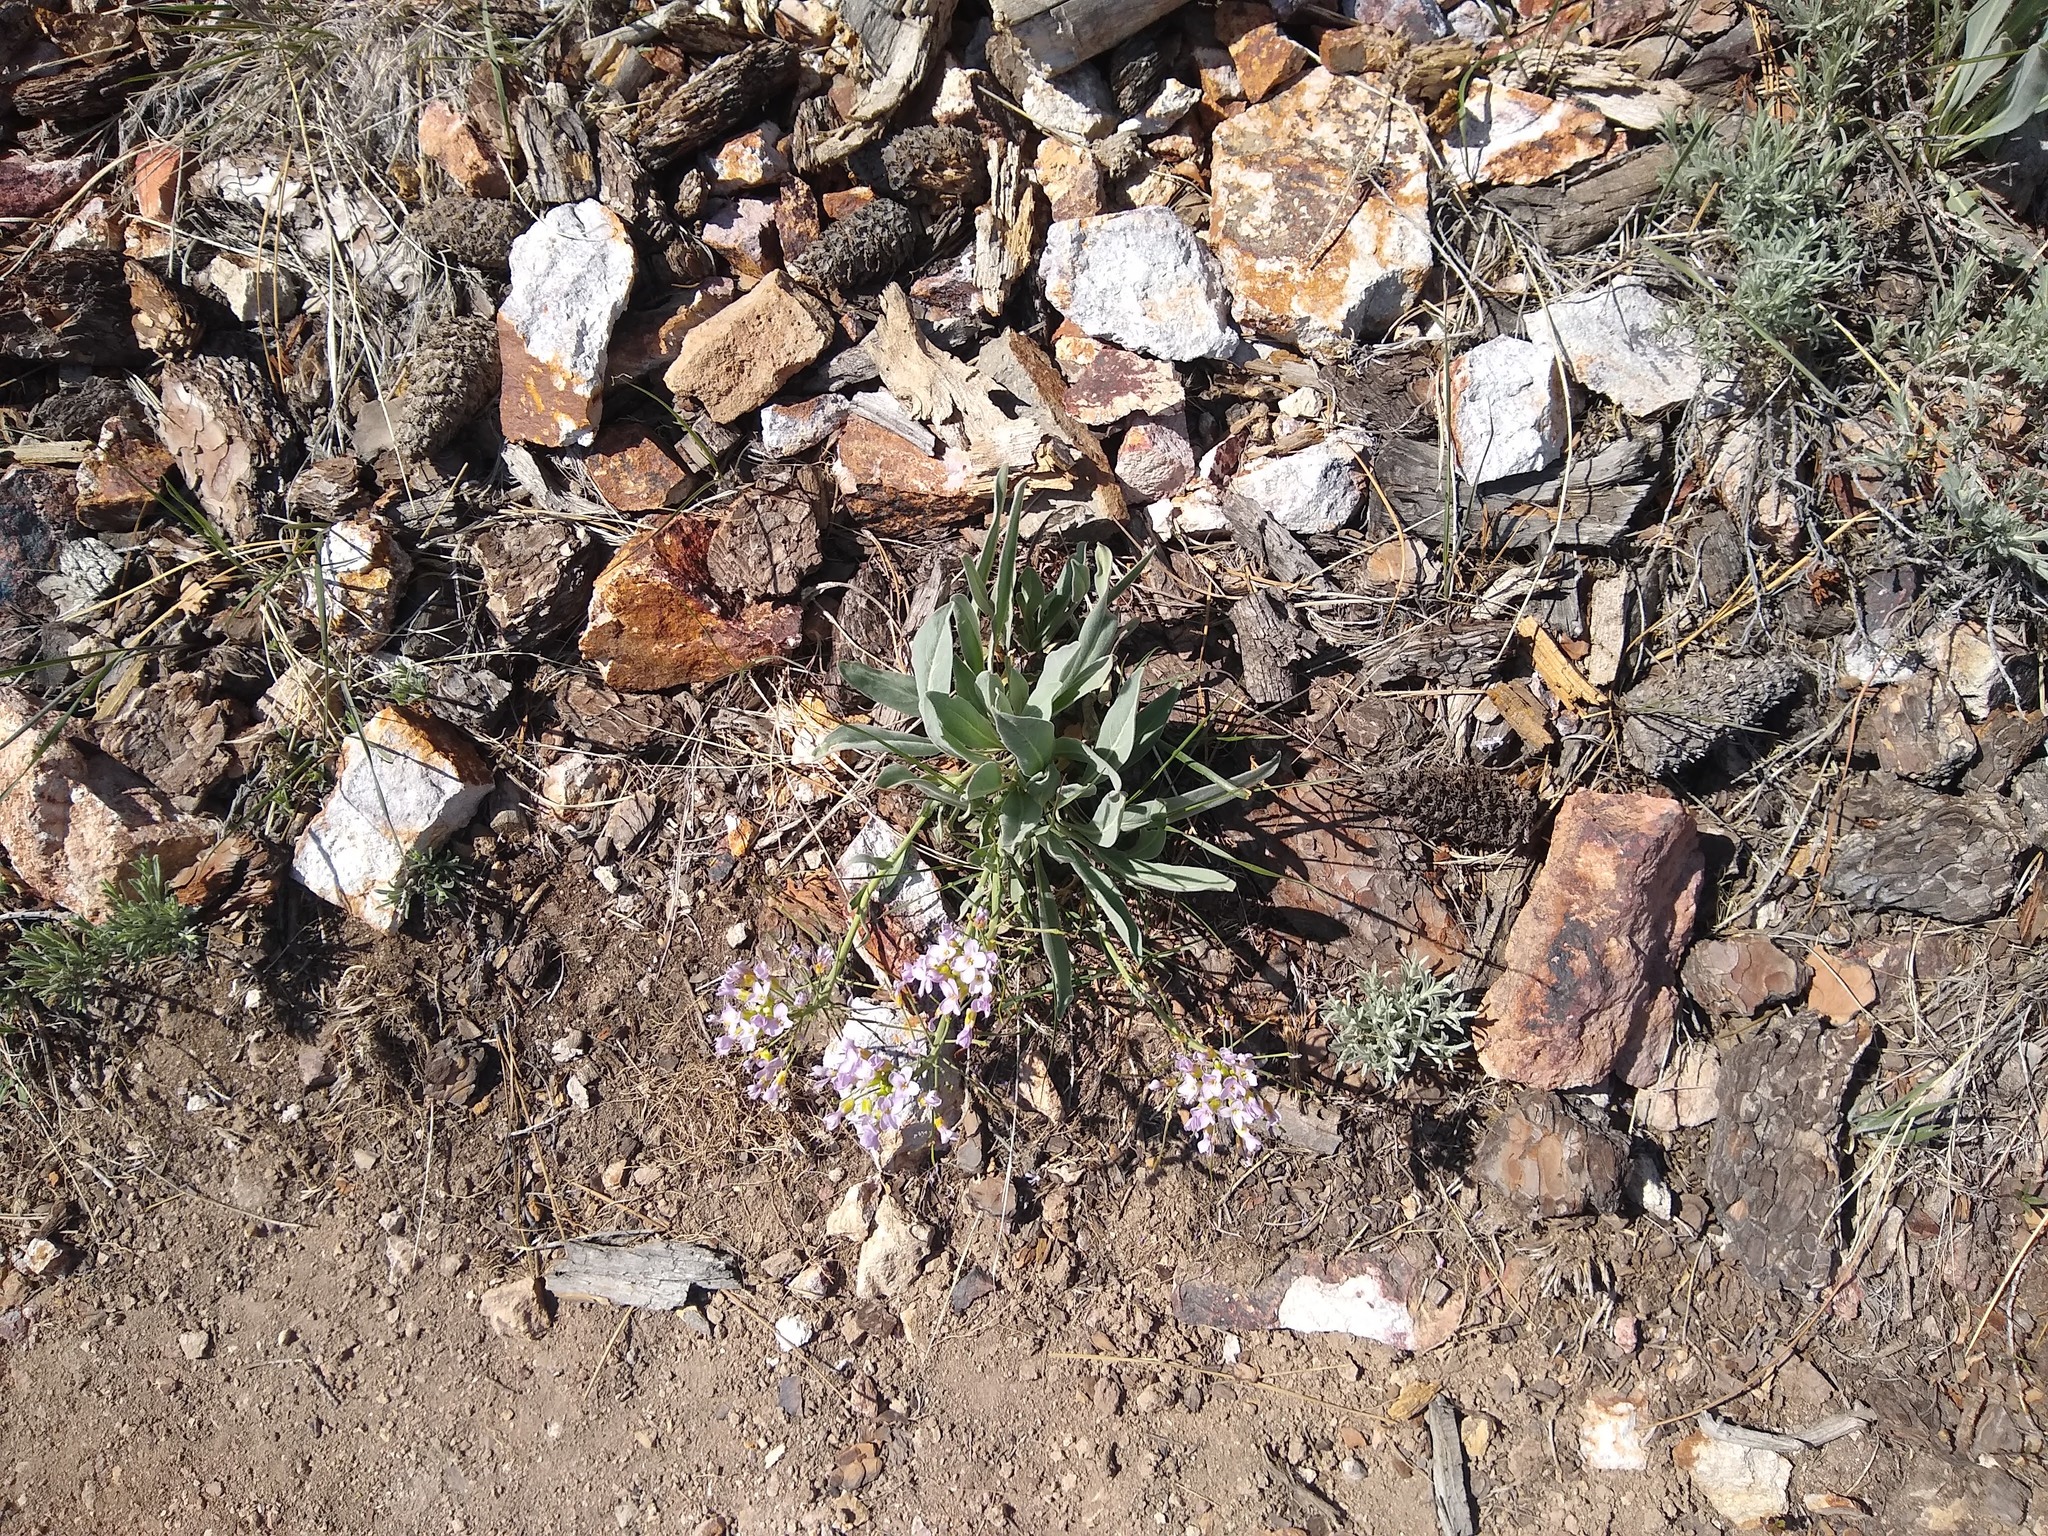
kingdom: Plantae
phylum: Tracheophyta
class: Magnoliopsida
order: Brassicales
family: Brassicaceae
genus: Phoenicaulis
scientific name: Phoenicaulis cheiranthoides
